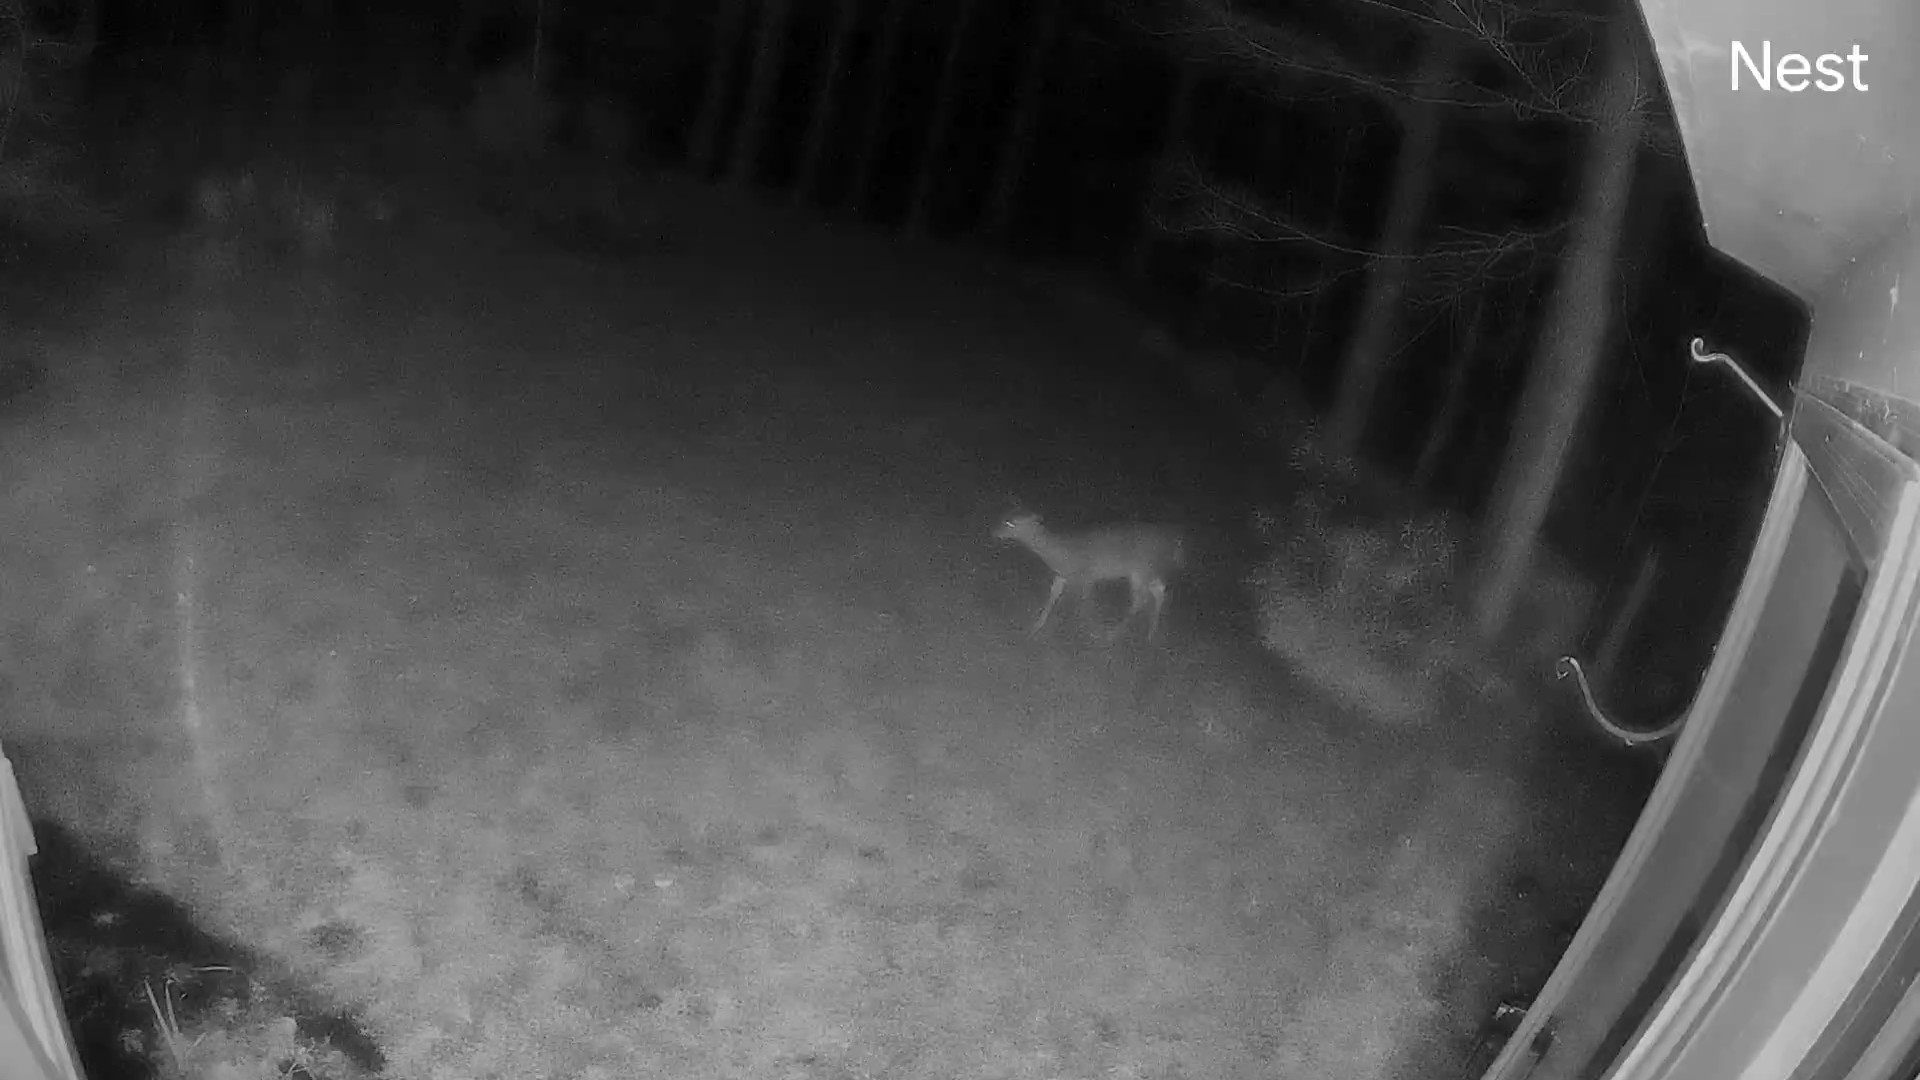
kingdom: Animalia
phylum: Chordata
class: Mammalia
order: Artiodactyla
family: Cervidae
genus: Odocoileus
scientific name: Odocoileus virginianus
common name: White-tailed deer
